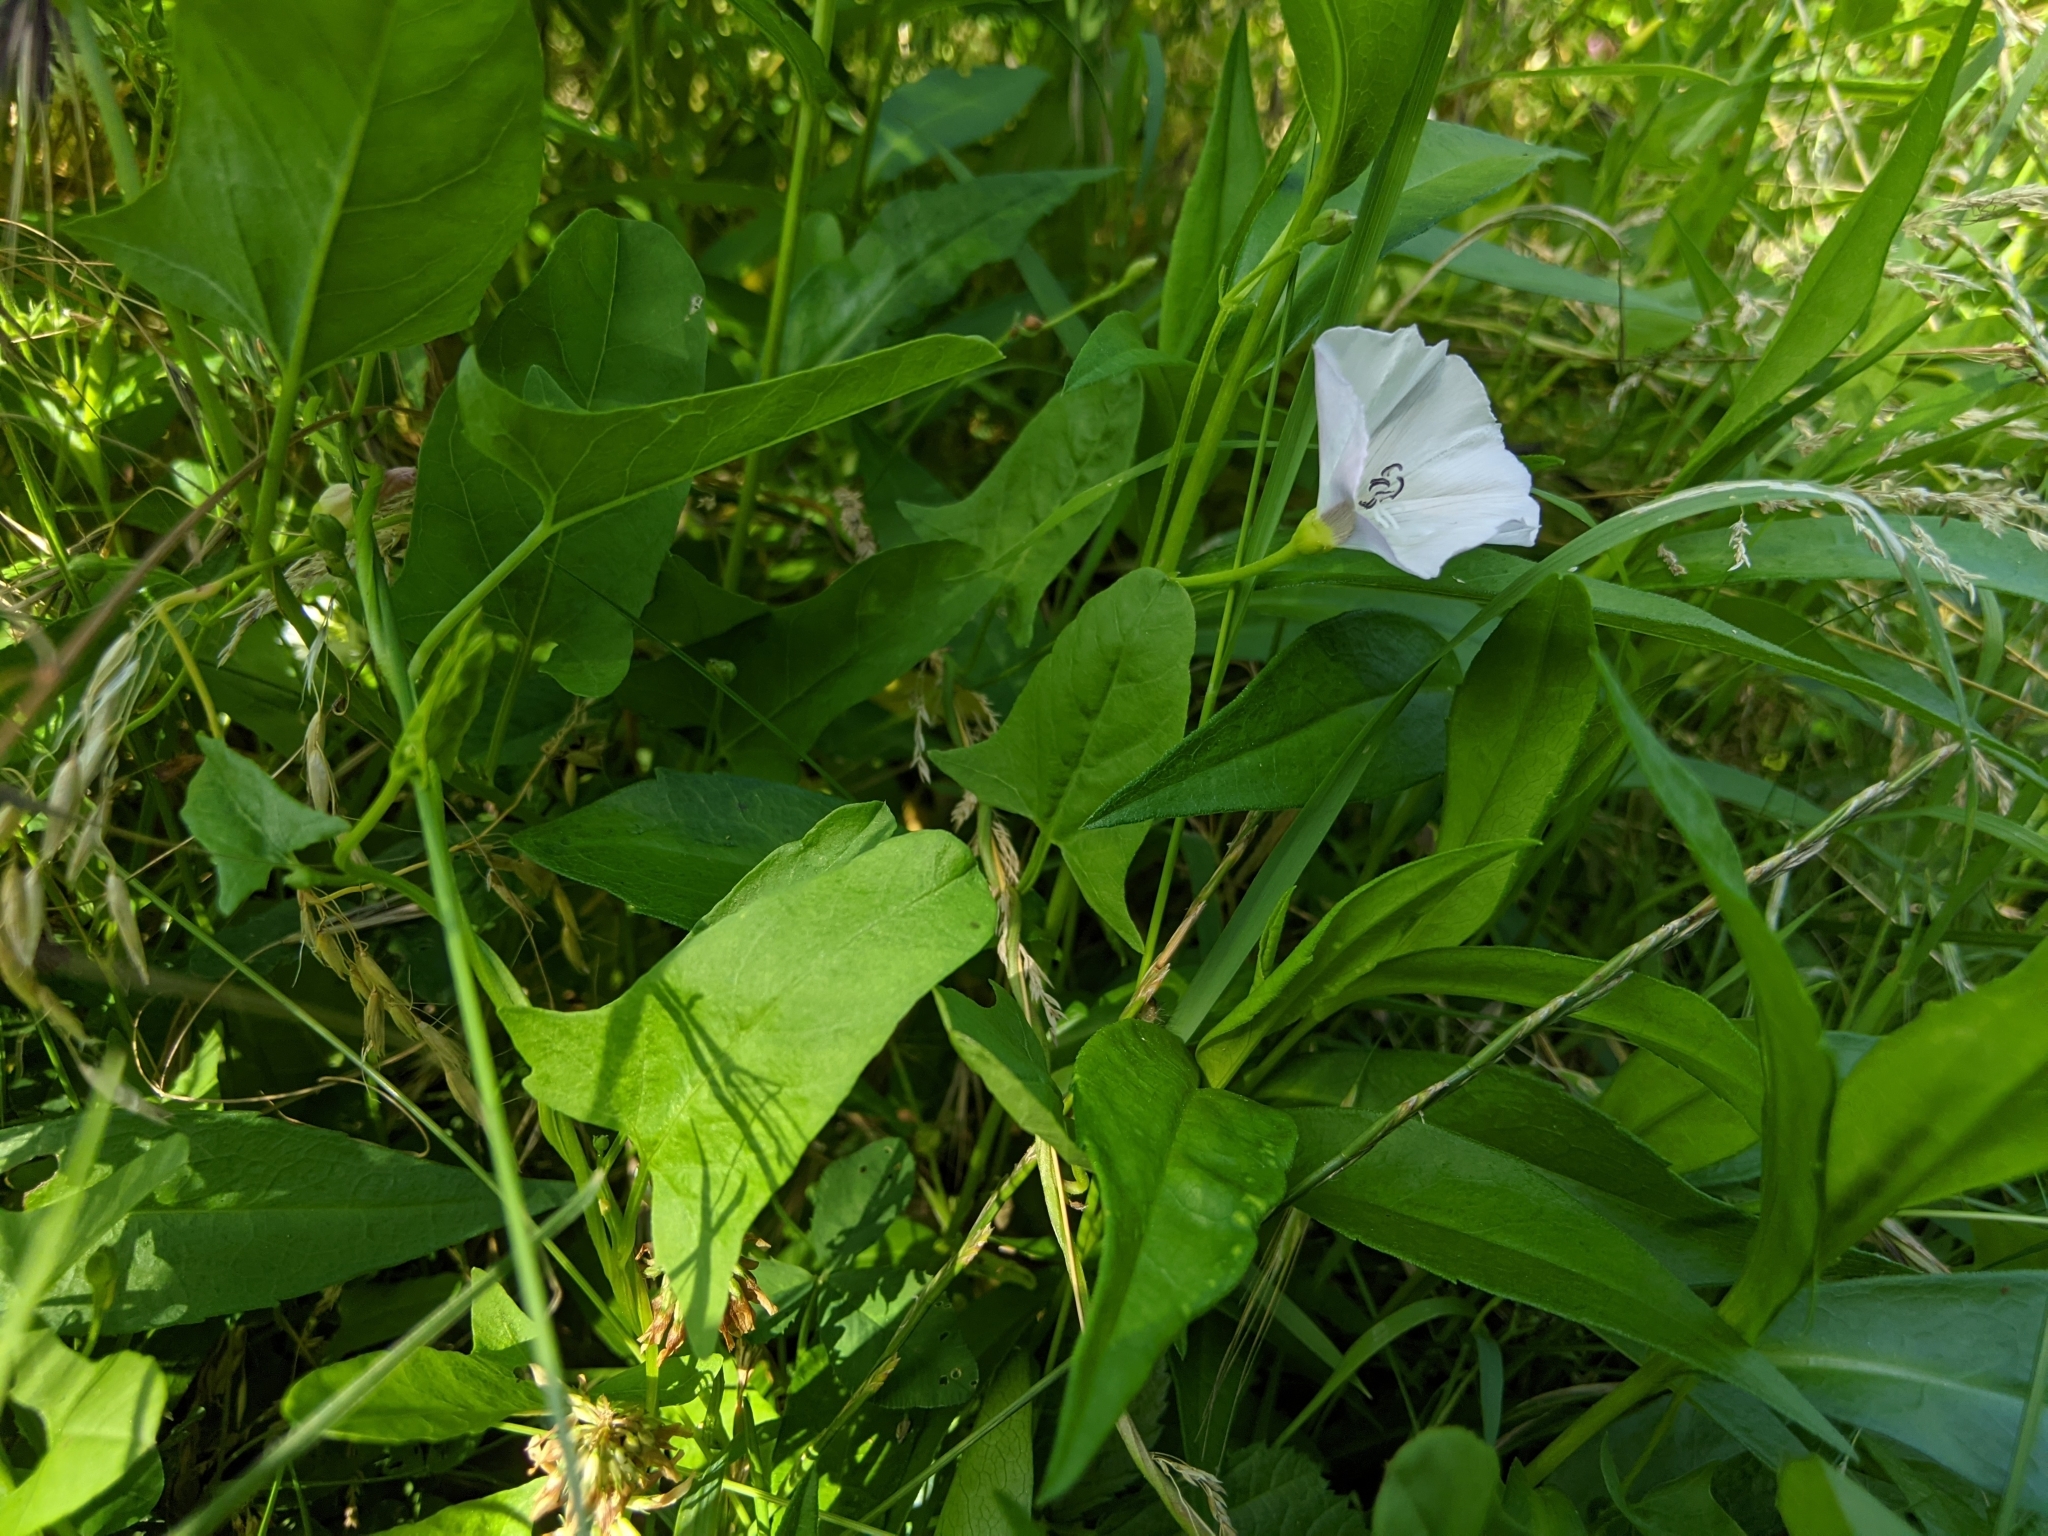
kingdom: Plantae
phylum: Tracheophyta
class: Magnoliopsida
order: Solanales
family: Convolvulaceae
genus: Convolvulus
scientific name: Convolvulus arvensis
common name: Field bindweed
